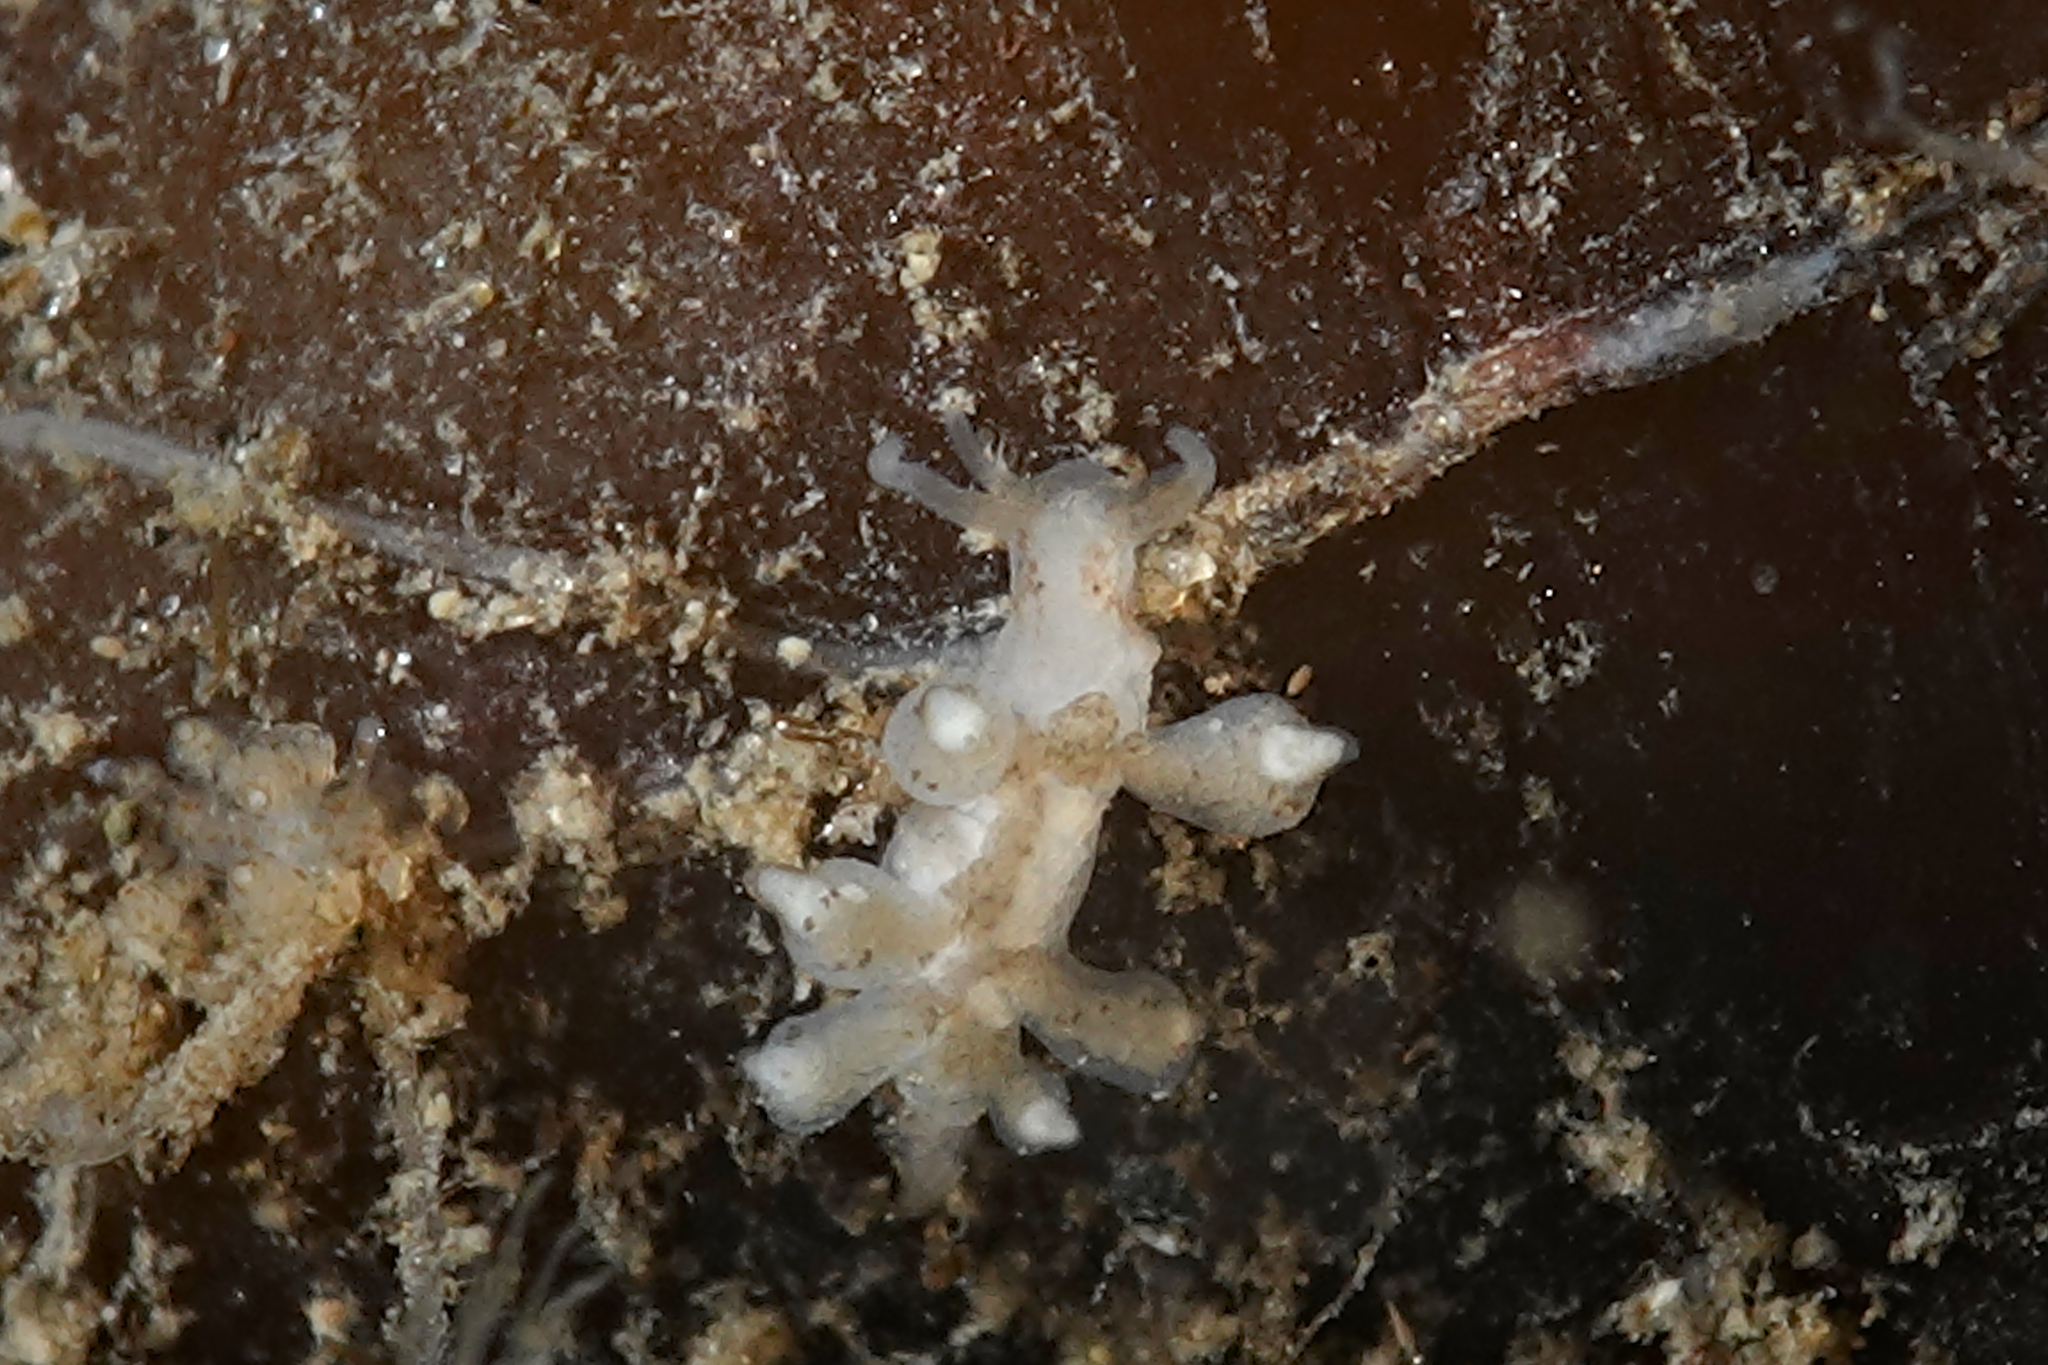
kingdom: Animalia
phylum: Mollusca
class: Gastropoda
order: Nudibranchia
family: Tergipedidae
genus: Tergipes
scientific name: Tergipes tergipes
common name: Johnston's balloon eolis
